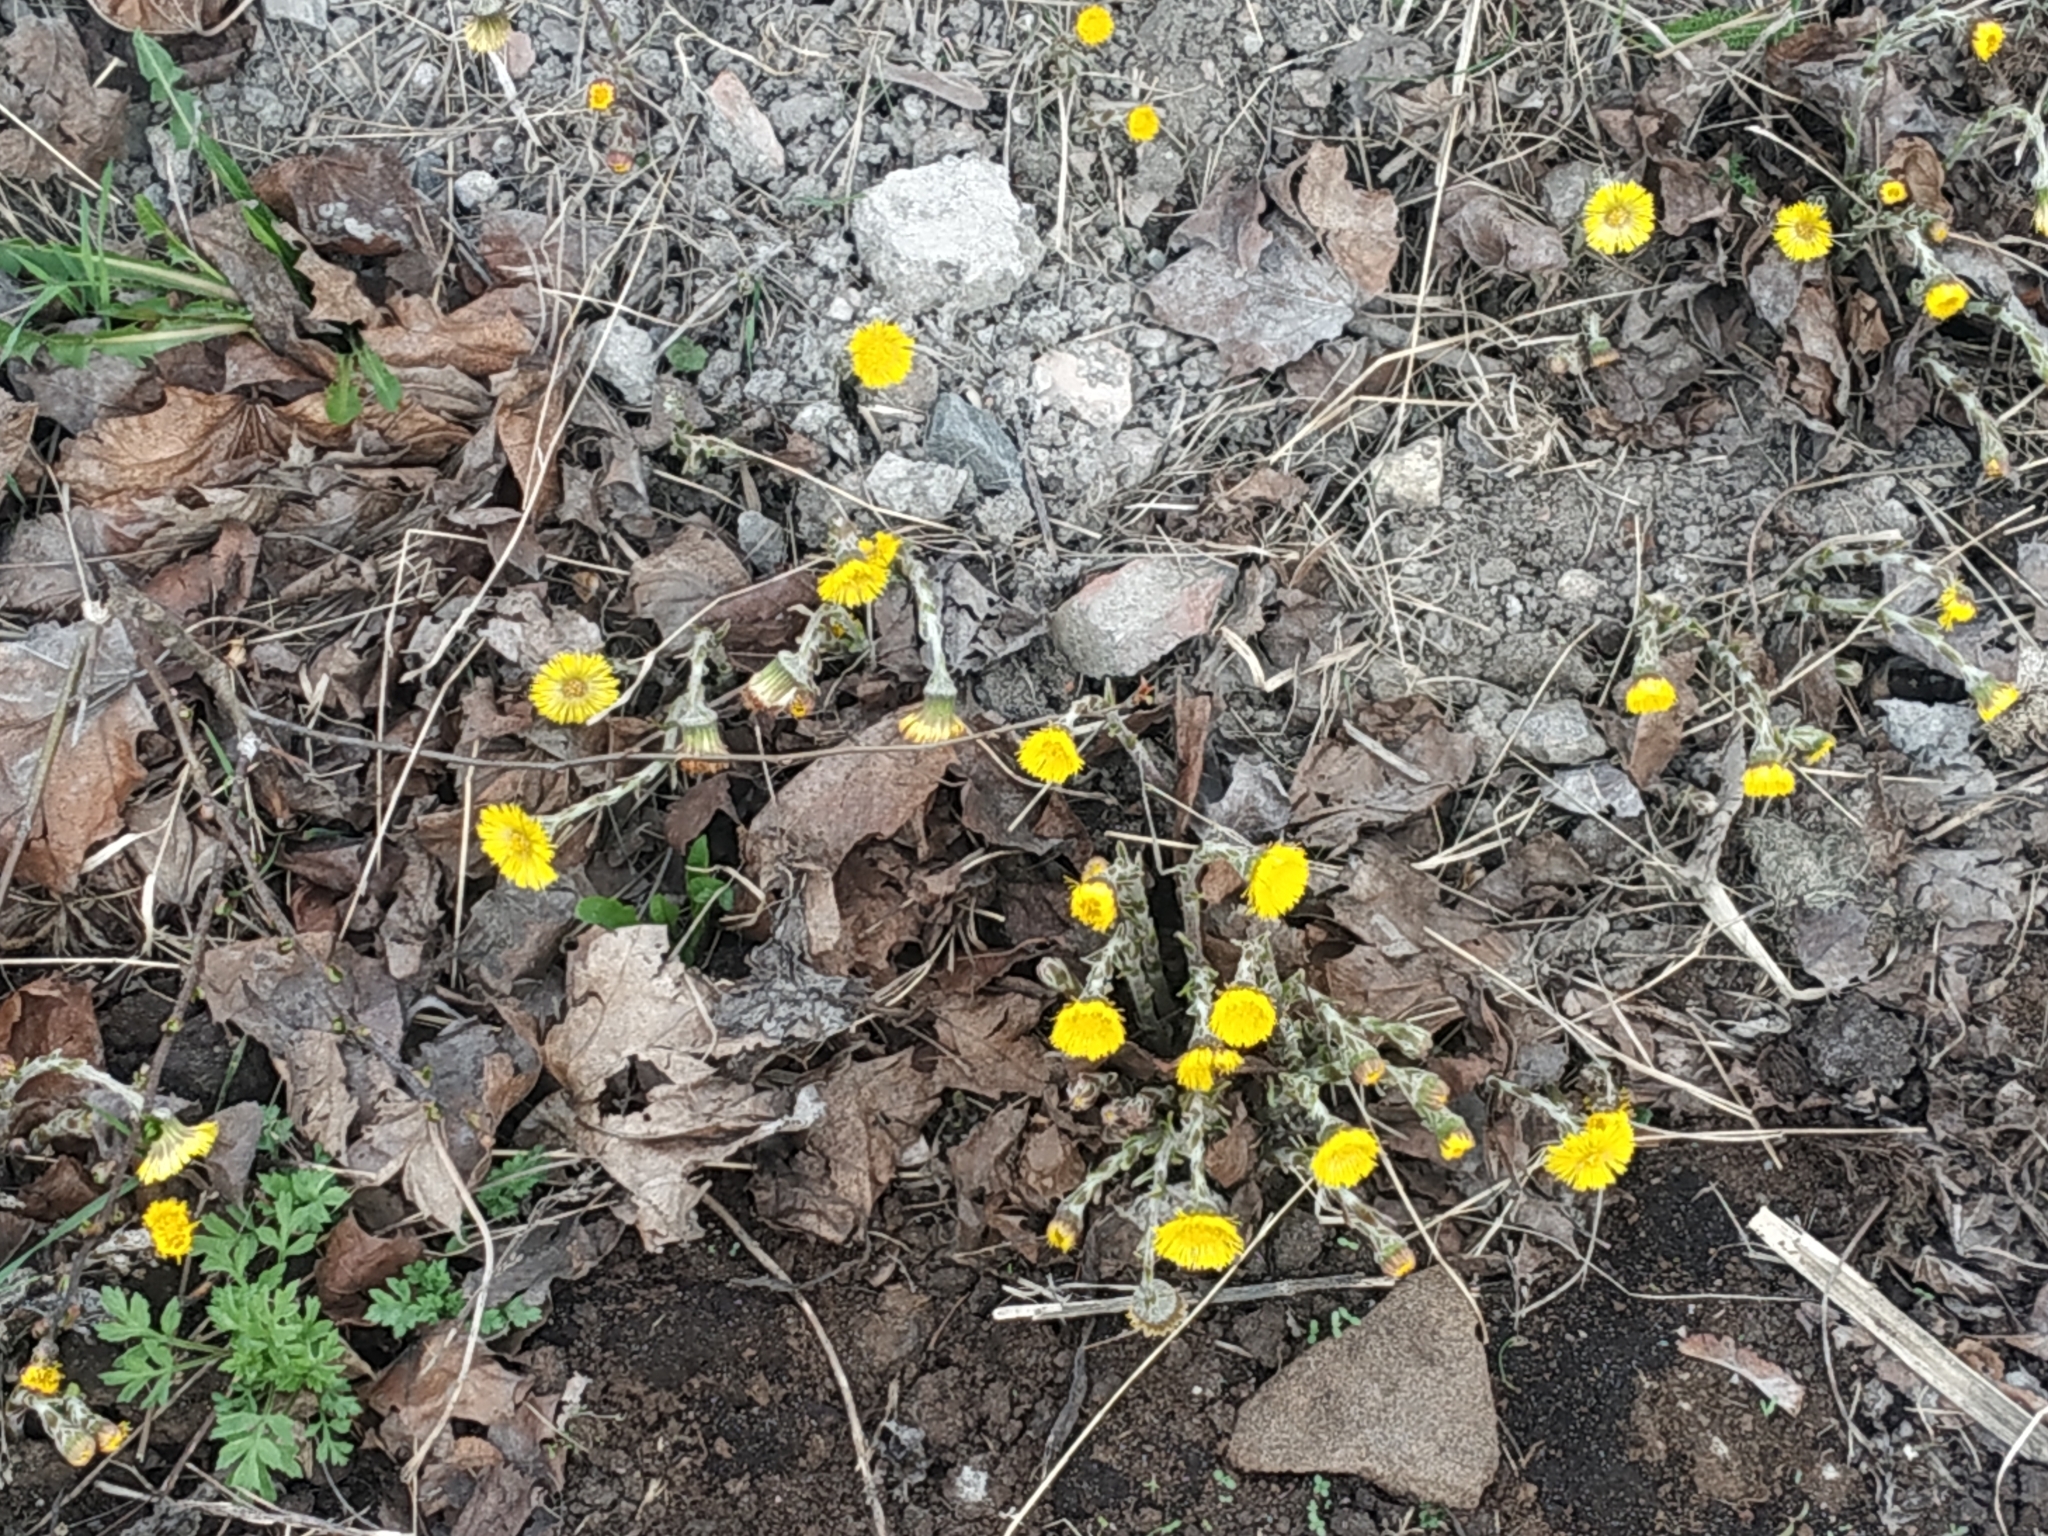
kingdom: Plantae
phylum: Tracheophyta
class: Magnoliopsida
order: Asterales
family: Asteraceae
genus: Tussilago
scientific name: Tussilago farfara
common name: Coltsfoot
